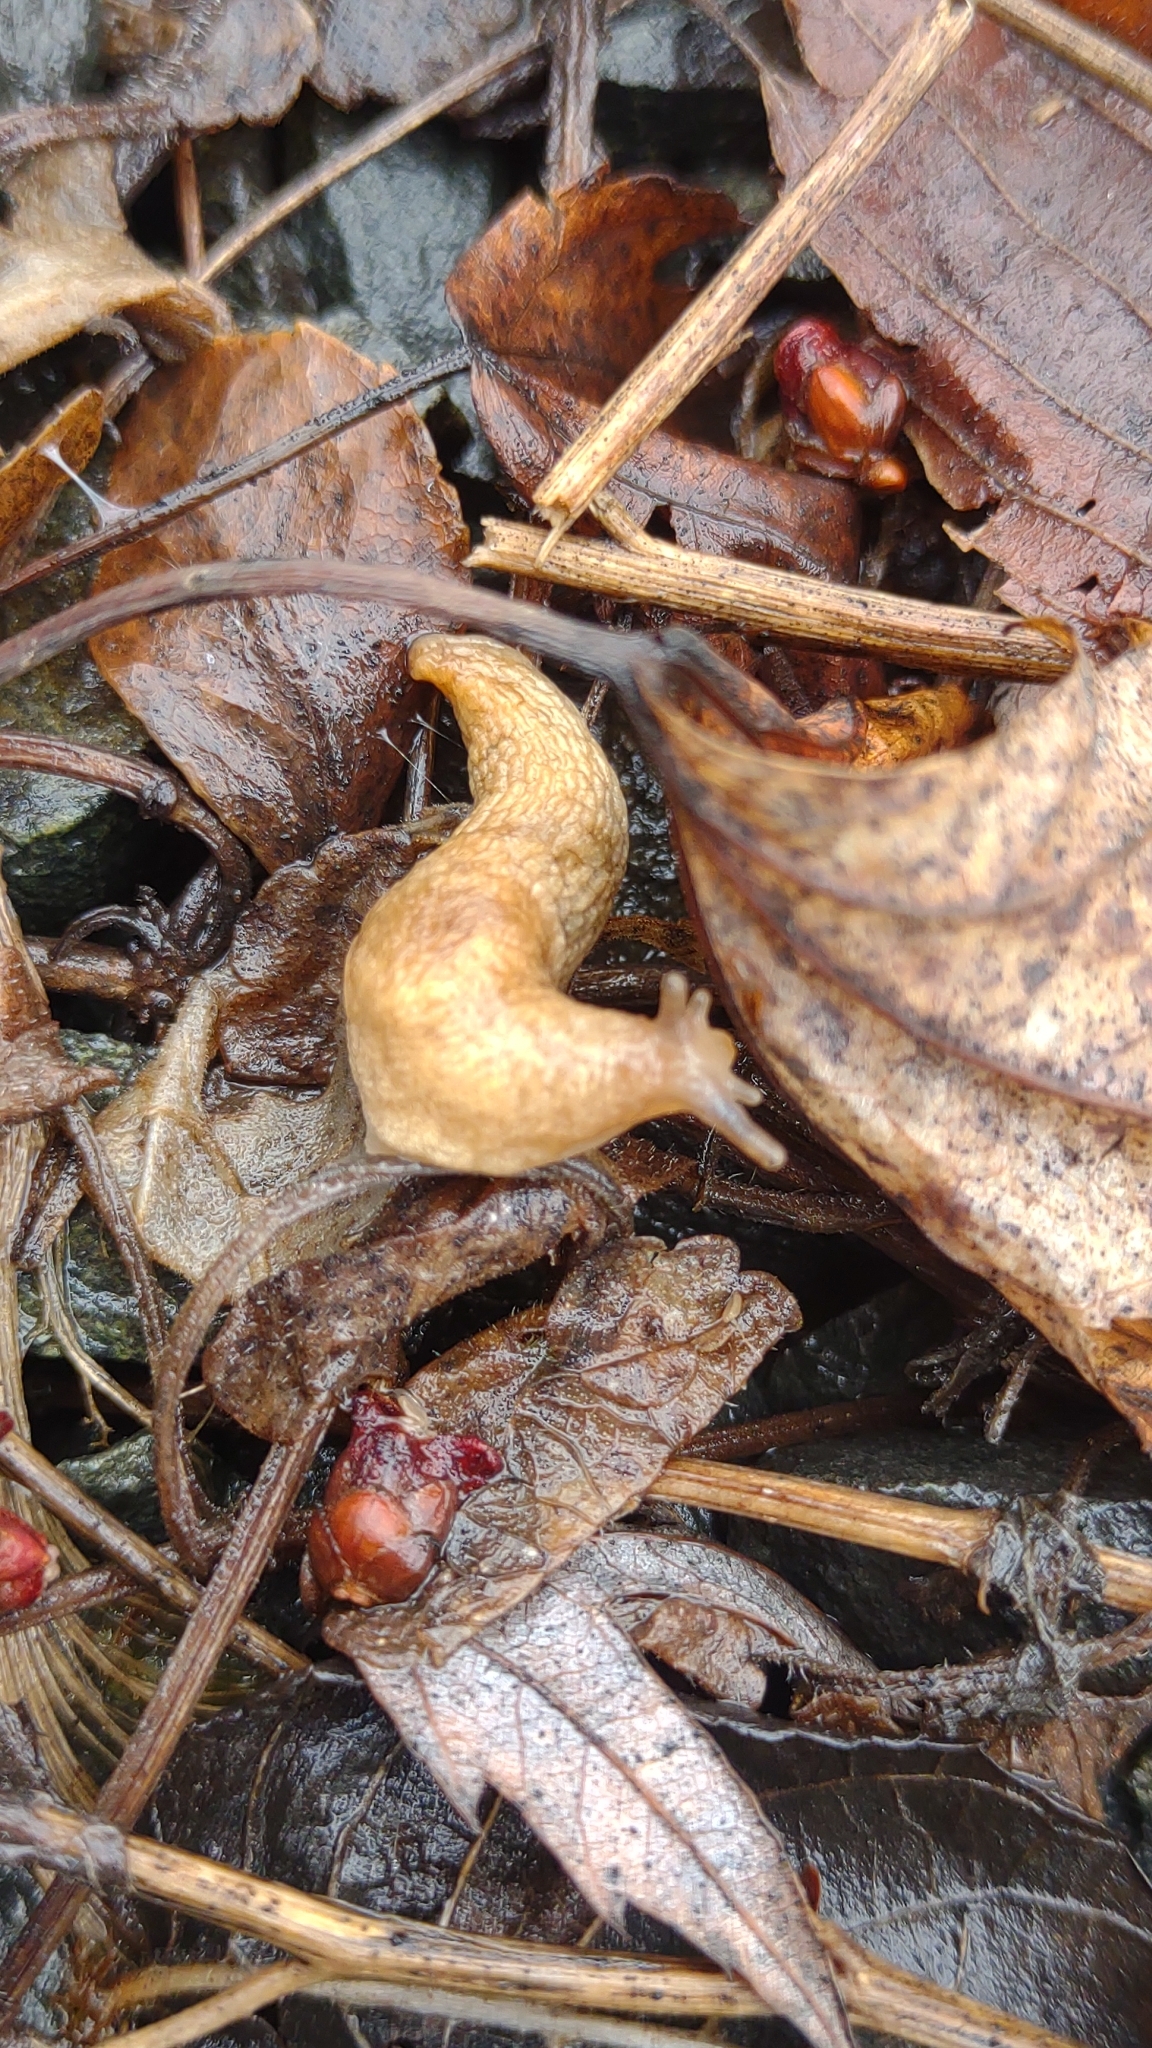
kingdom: Animalia
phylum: Mollusca
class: Gastropoda
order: Stylommatophora
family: Agriolimacidae
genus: Deroceras
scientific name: Deroceras reticulatum
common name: Gray field slug
